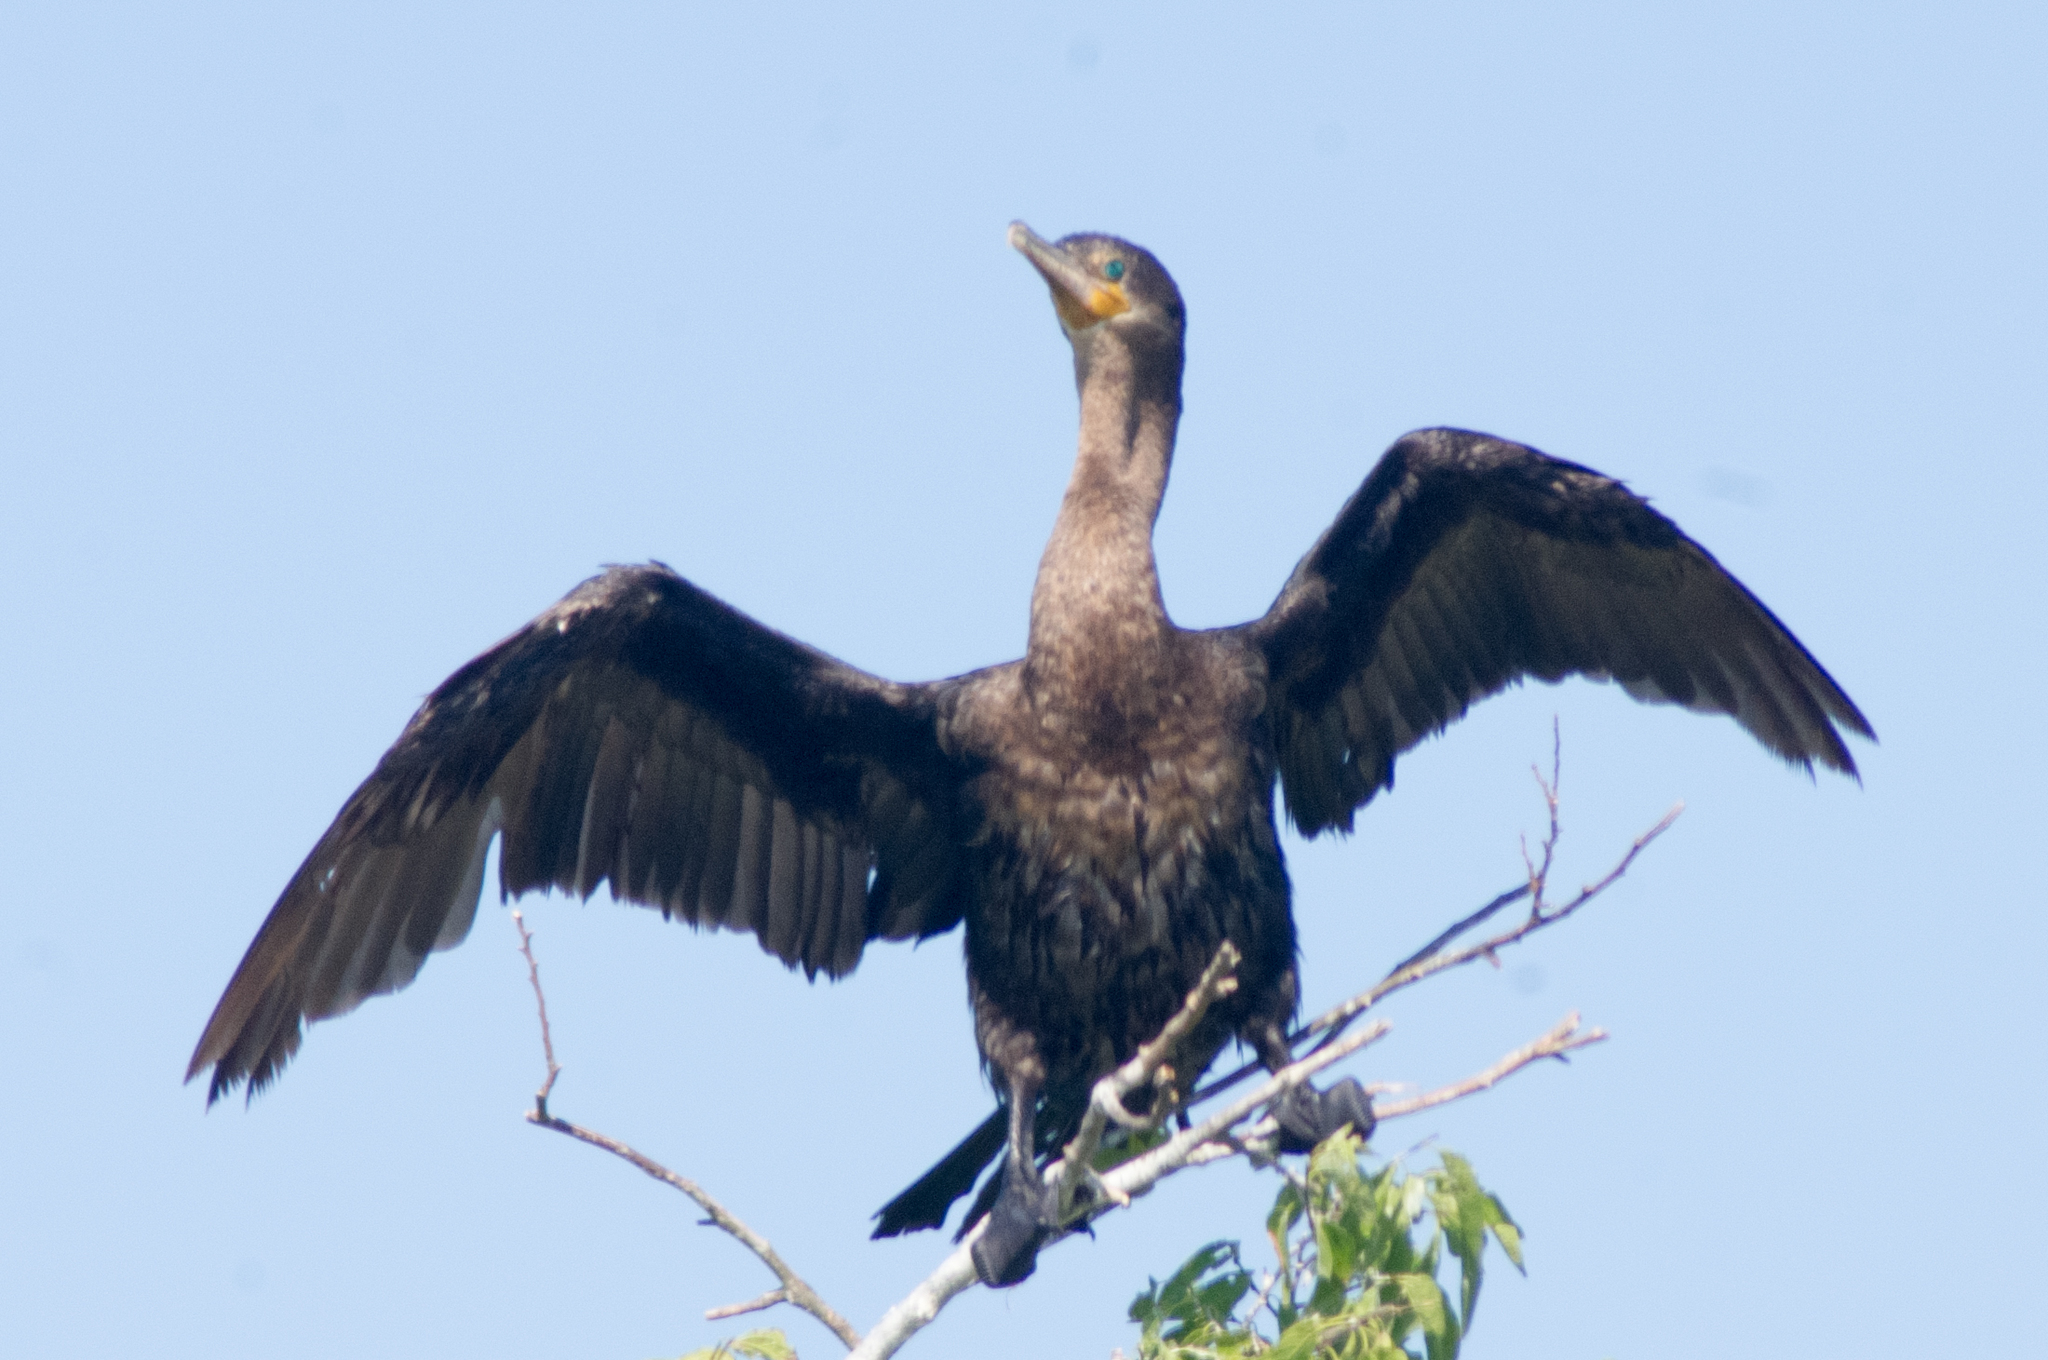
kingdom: Animalia
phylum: Chordata
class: Aves
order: Suliformes
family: Phalacrocoracidae
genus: Phalacrocorax
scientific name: Phalacrocorax brasilianus
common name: Neotropic cormorant
